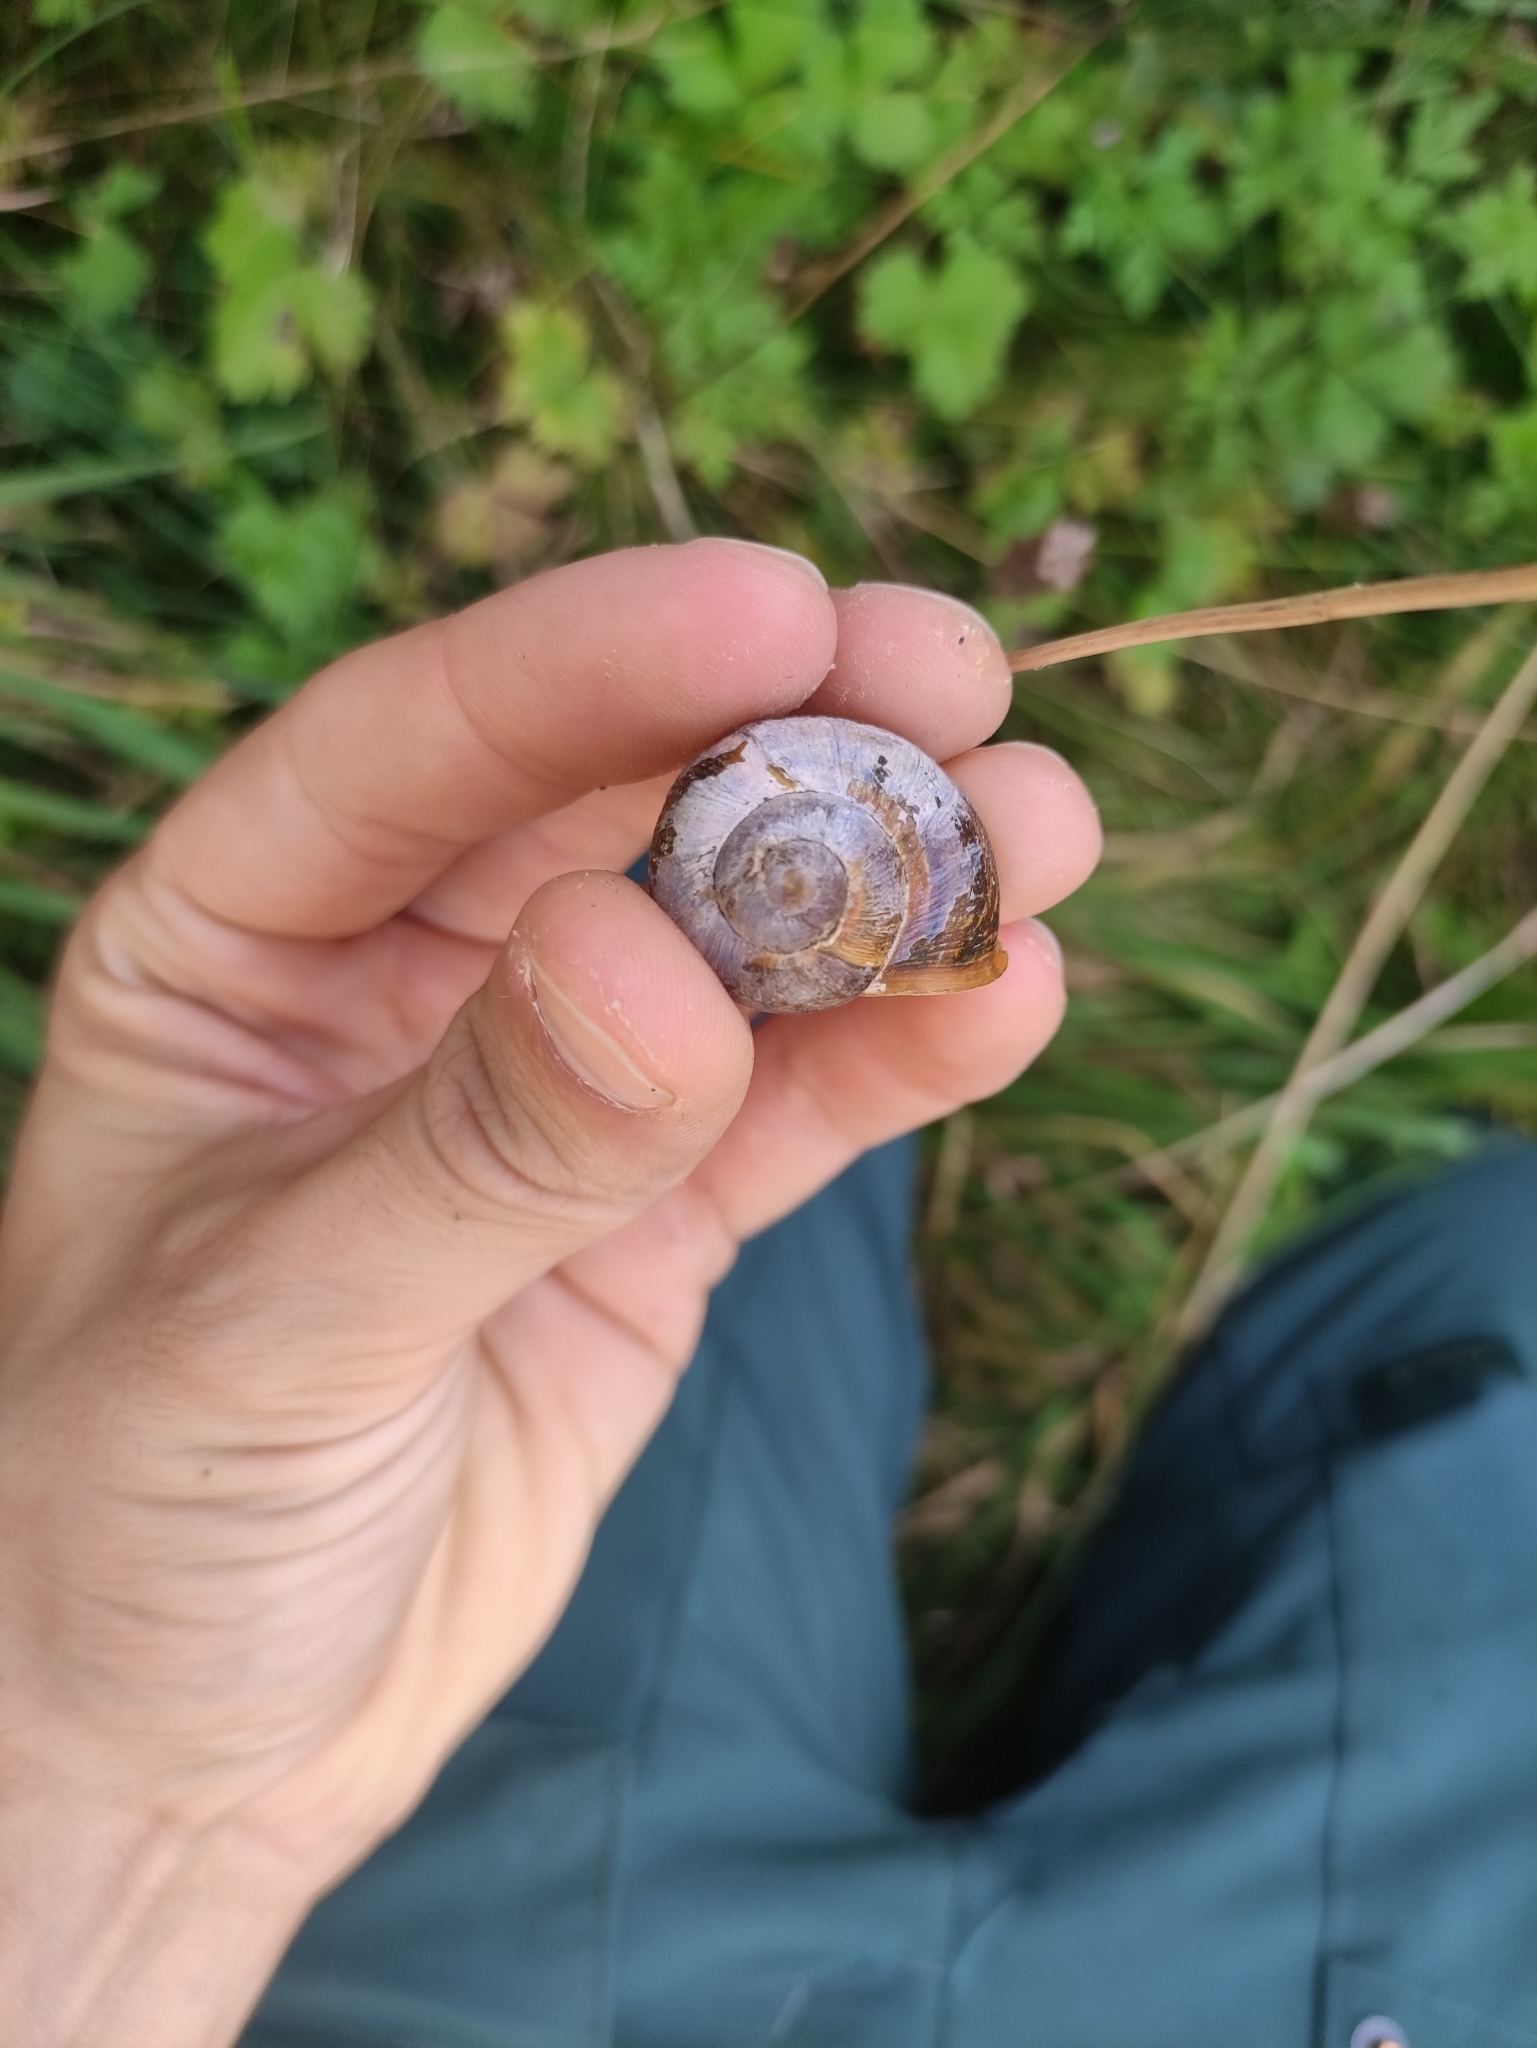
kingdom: Animalia
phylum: Mollusca
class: Gastropoda
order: Stylommatophora
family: Helicidae
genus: Cornu
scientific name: Cornu aspersum
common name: Brown garden snail
